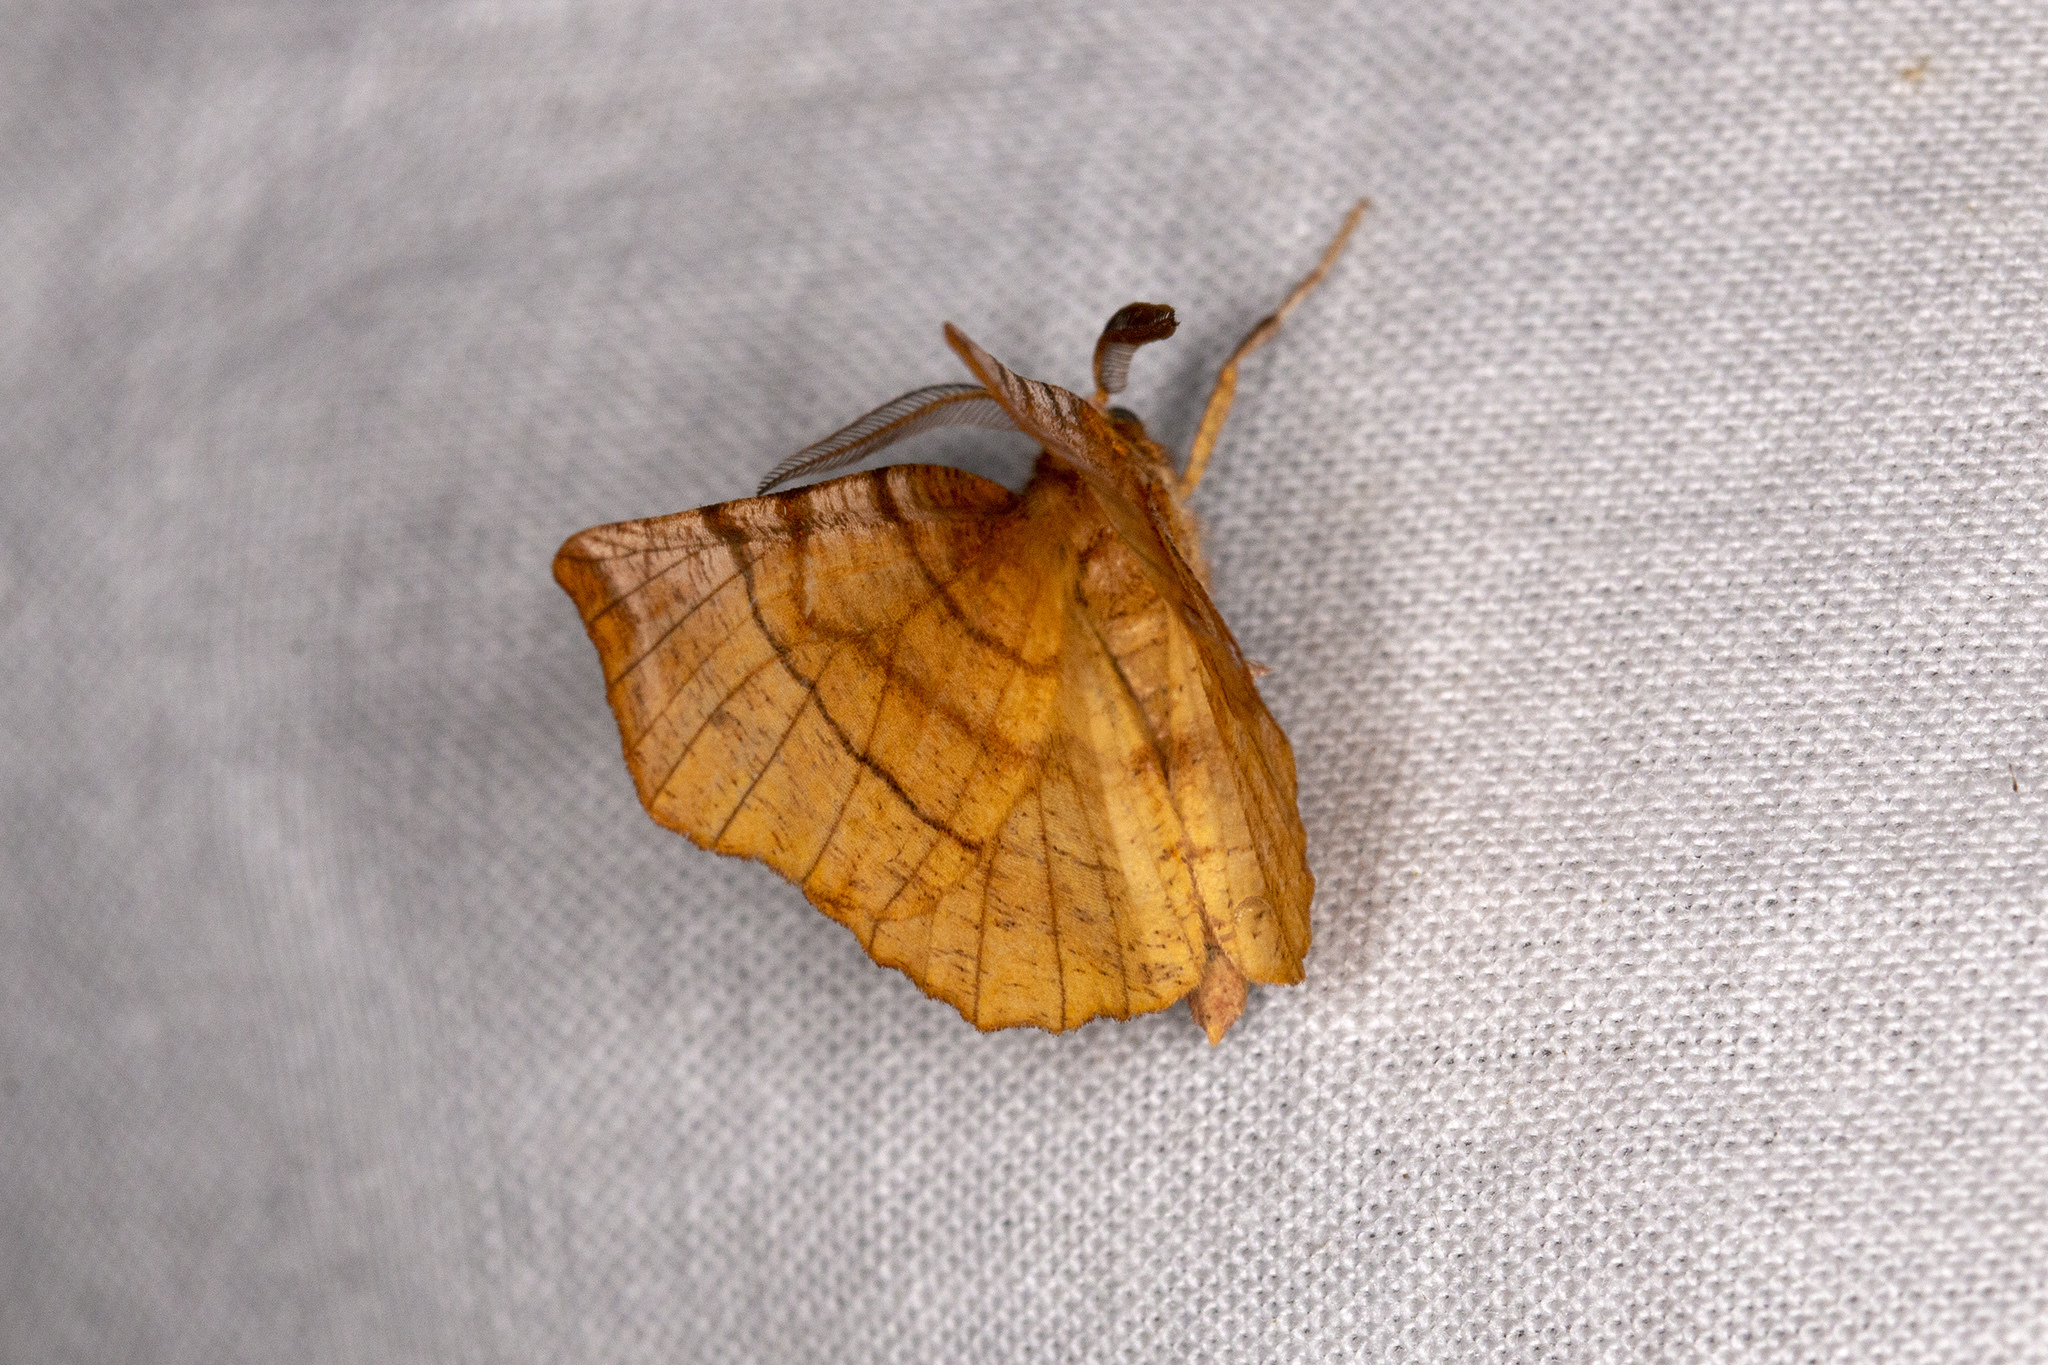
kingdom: Animalia
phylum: Arthropoda
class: Insecta
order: Lepidoptera
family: Geometridae
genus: Selenia
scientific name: Selenia dentaria
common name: Early thorn
